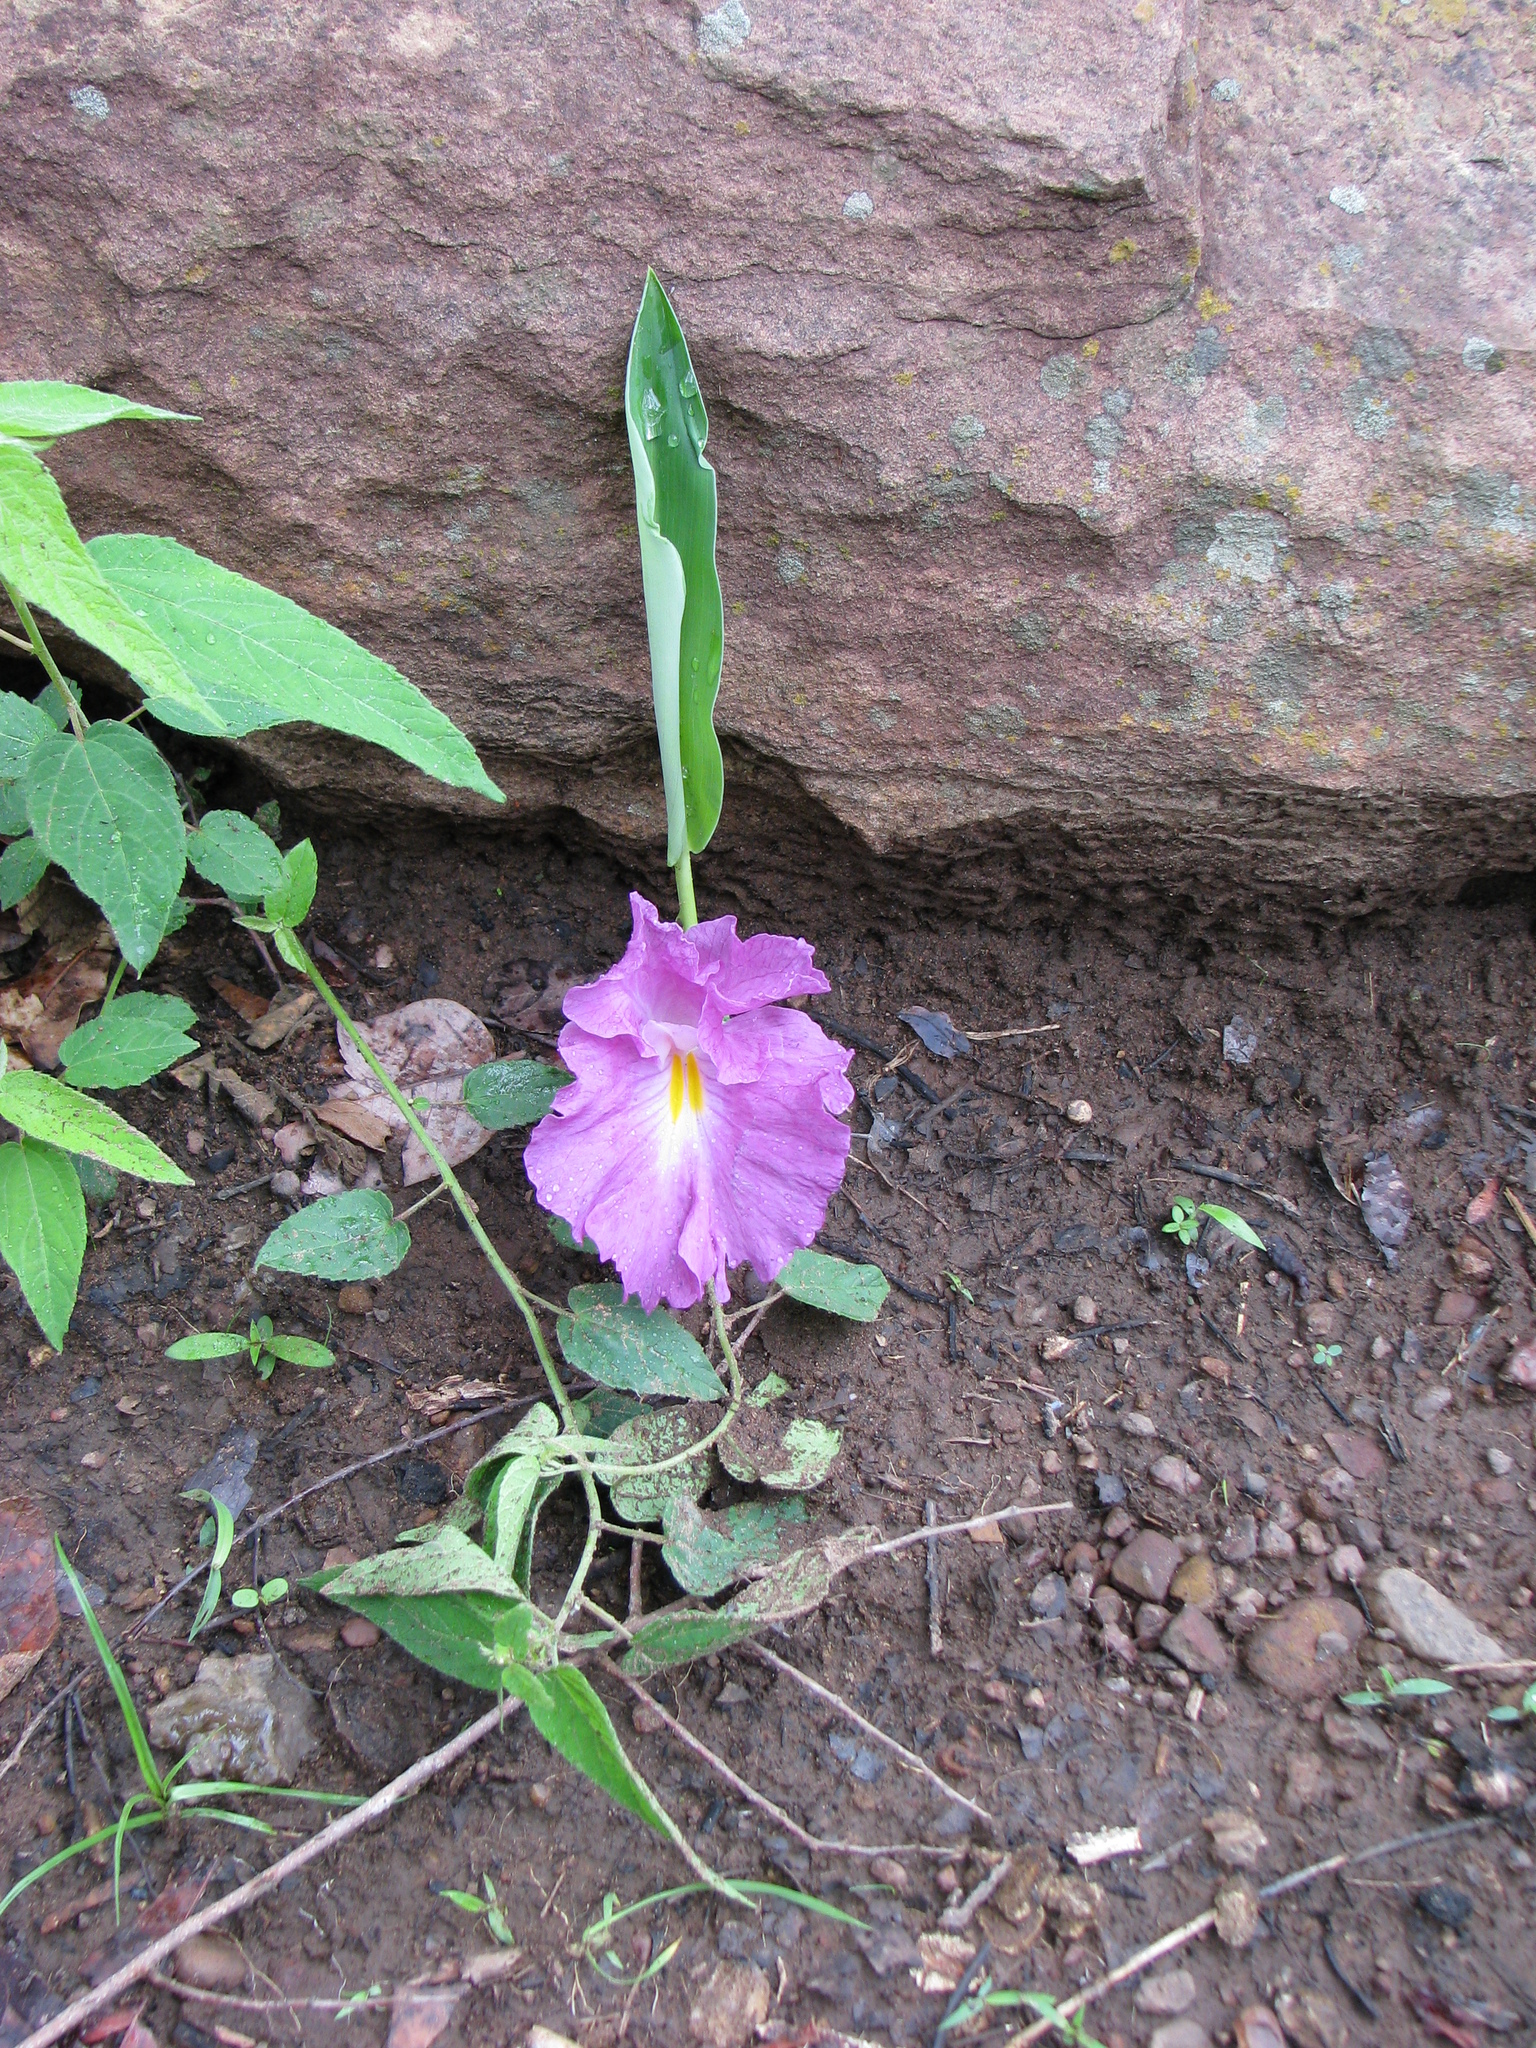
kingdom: Plantae
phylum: Tracheophyta
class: Liliopsida
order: Zingiberales
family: Zingiberaceae
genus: Siphonochilus
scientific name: Siphonochilus aethiopicus
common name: African-ginger
